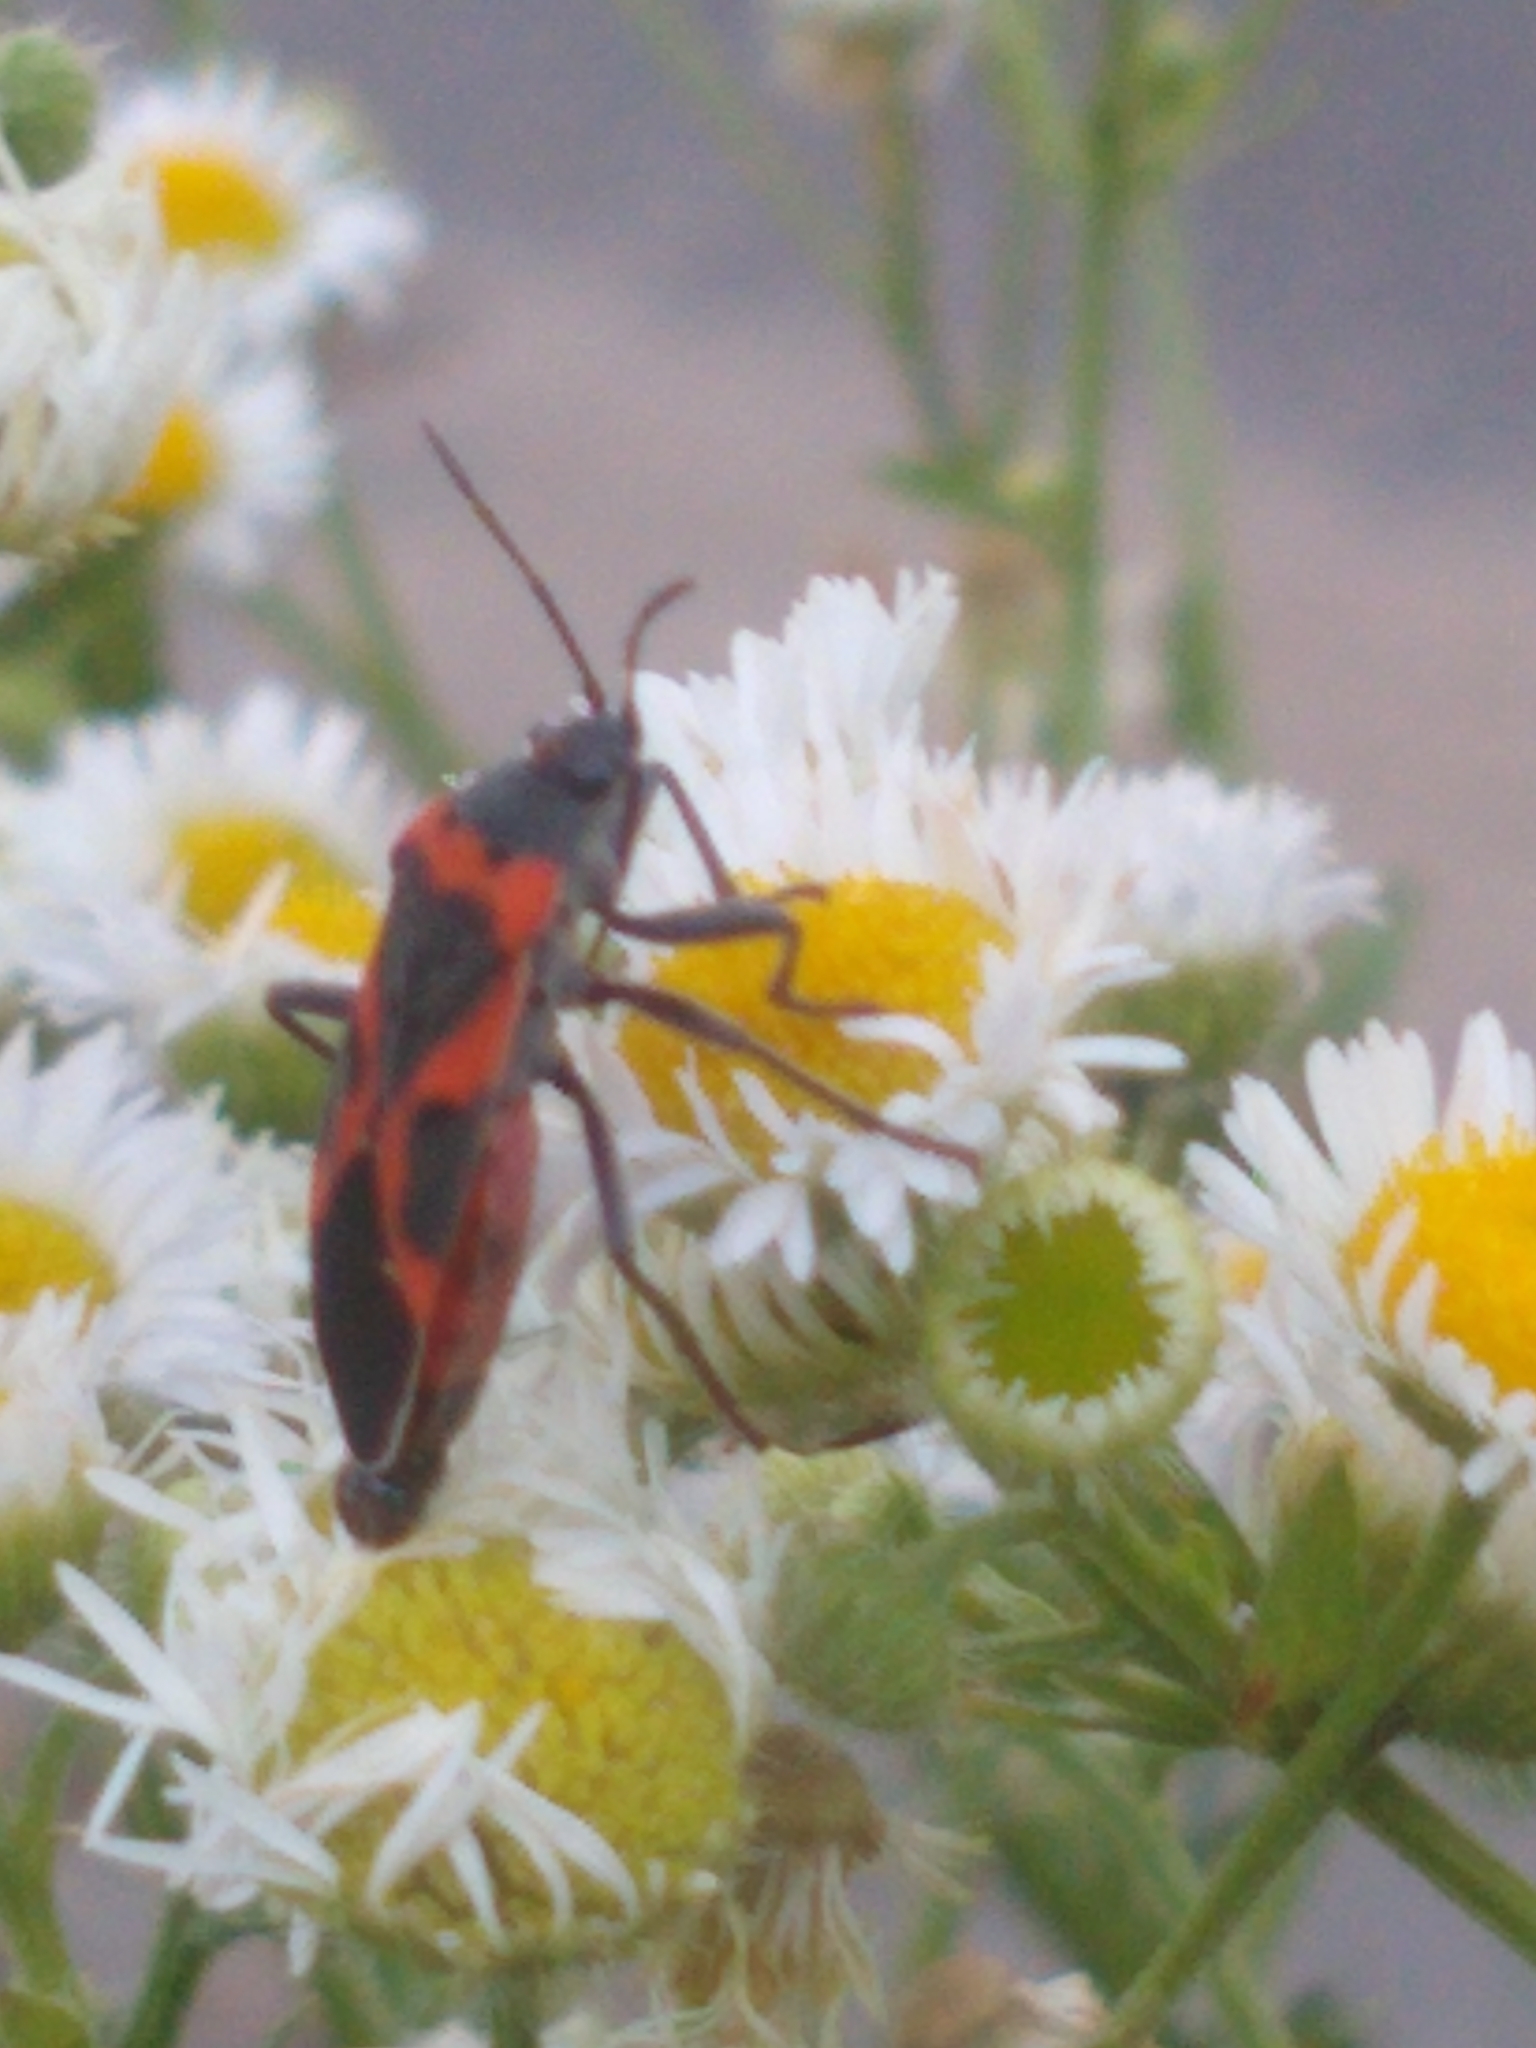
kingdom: Animalia
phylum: Arthropoda
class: Insecta
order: Hemiptera
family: Lygaeidae
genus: Lygaeus
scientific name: Lygaeus kalmii
